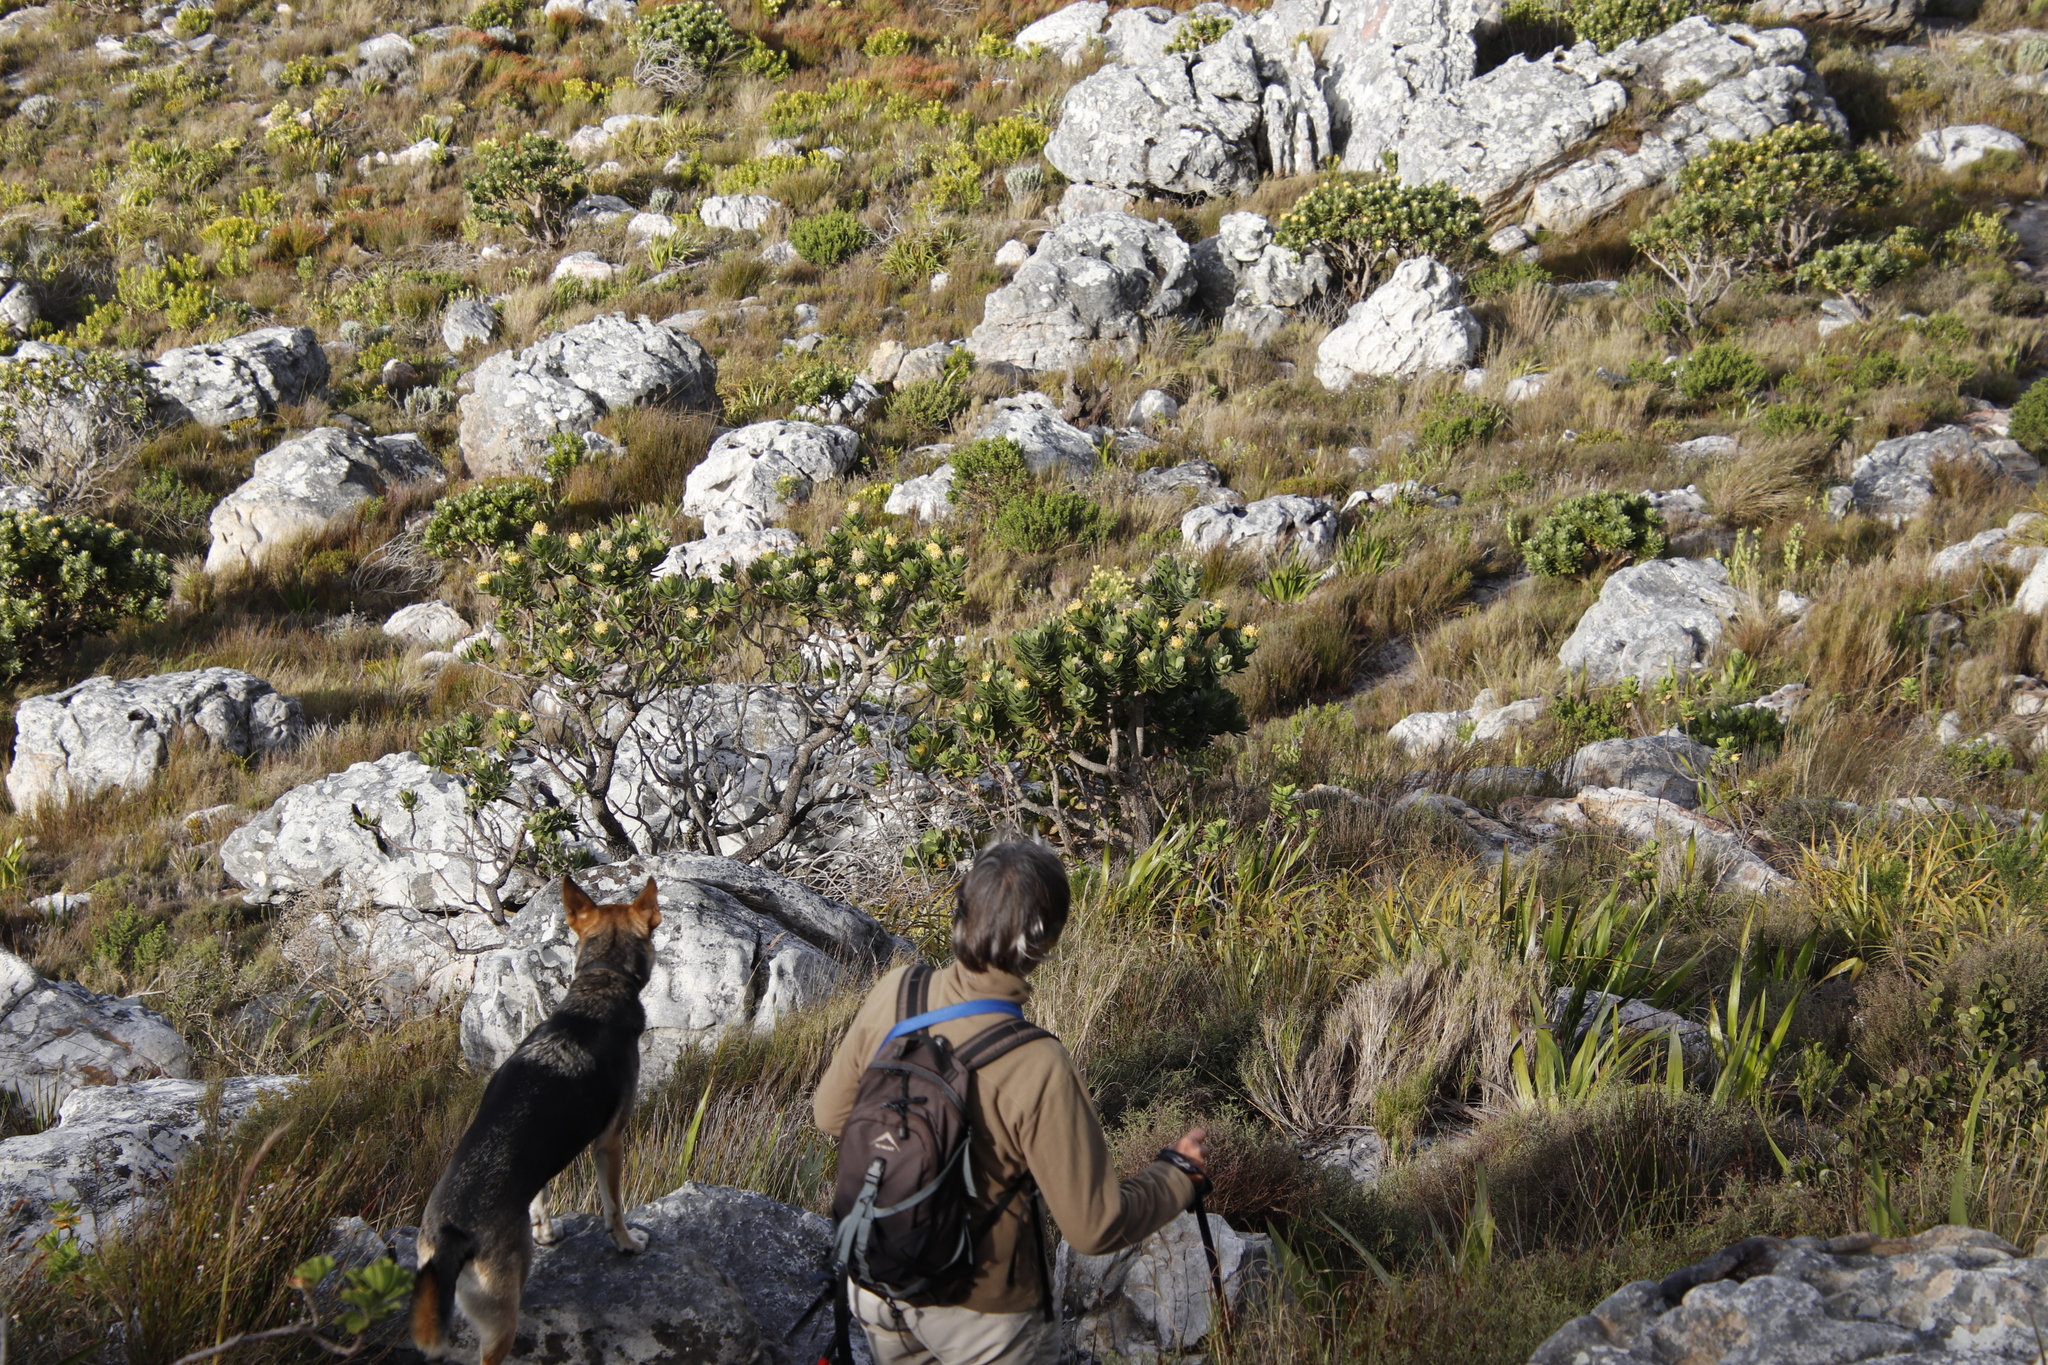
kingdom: Plantae
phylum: Tracheophyta
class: Magnoliopsida
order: Proteales
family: Proteaceae
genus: Leucospermum
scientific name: Leucospermum conocarpodendron
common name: Tree pincushion
